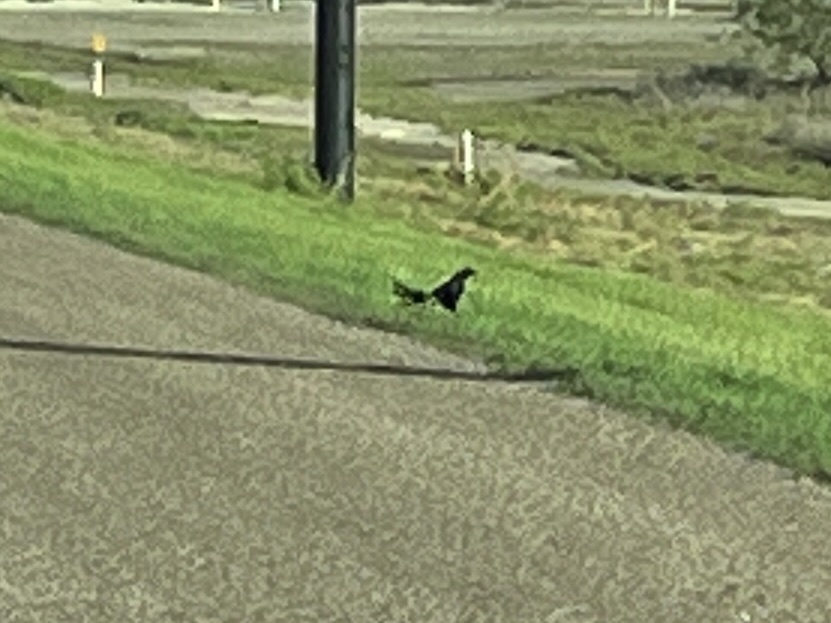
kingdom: Animalia
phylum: Chordata
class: Aves
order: Passeriformes
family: Icteridae
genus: Quiscalus
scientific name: Quiscalus mexicanus
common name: Great-tailed grackle
